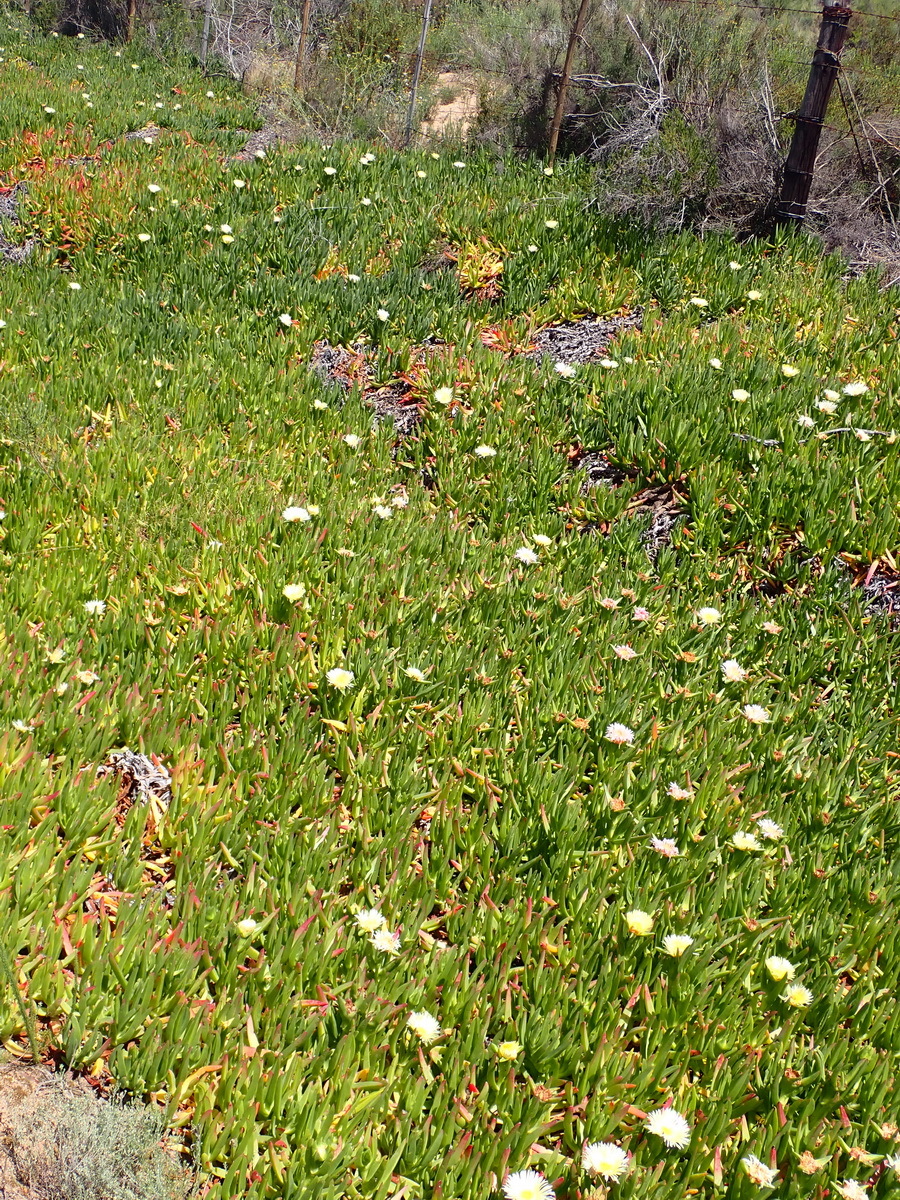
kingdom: Plantae
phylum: Tracheophyta
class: Magnoliopsida
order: Caryophyllales
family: Aizoaceae
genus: Carpobrotus
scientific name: Carpobrotus edulis
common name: Hottentot-fig
